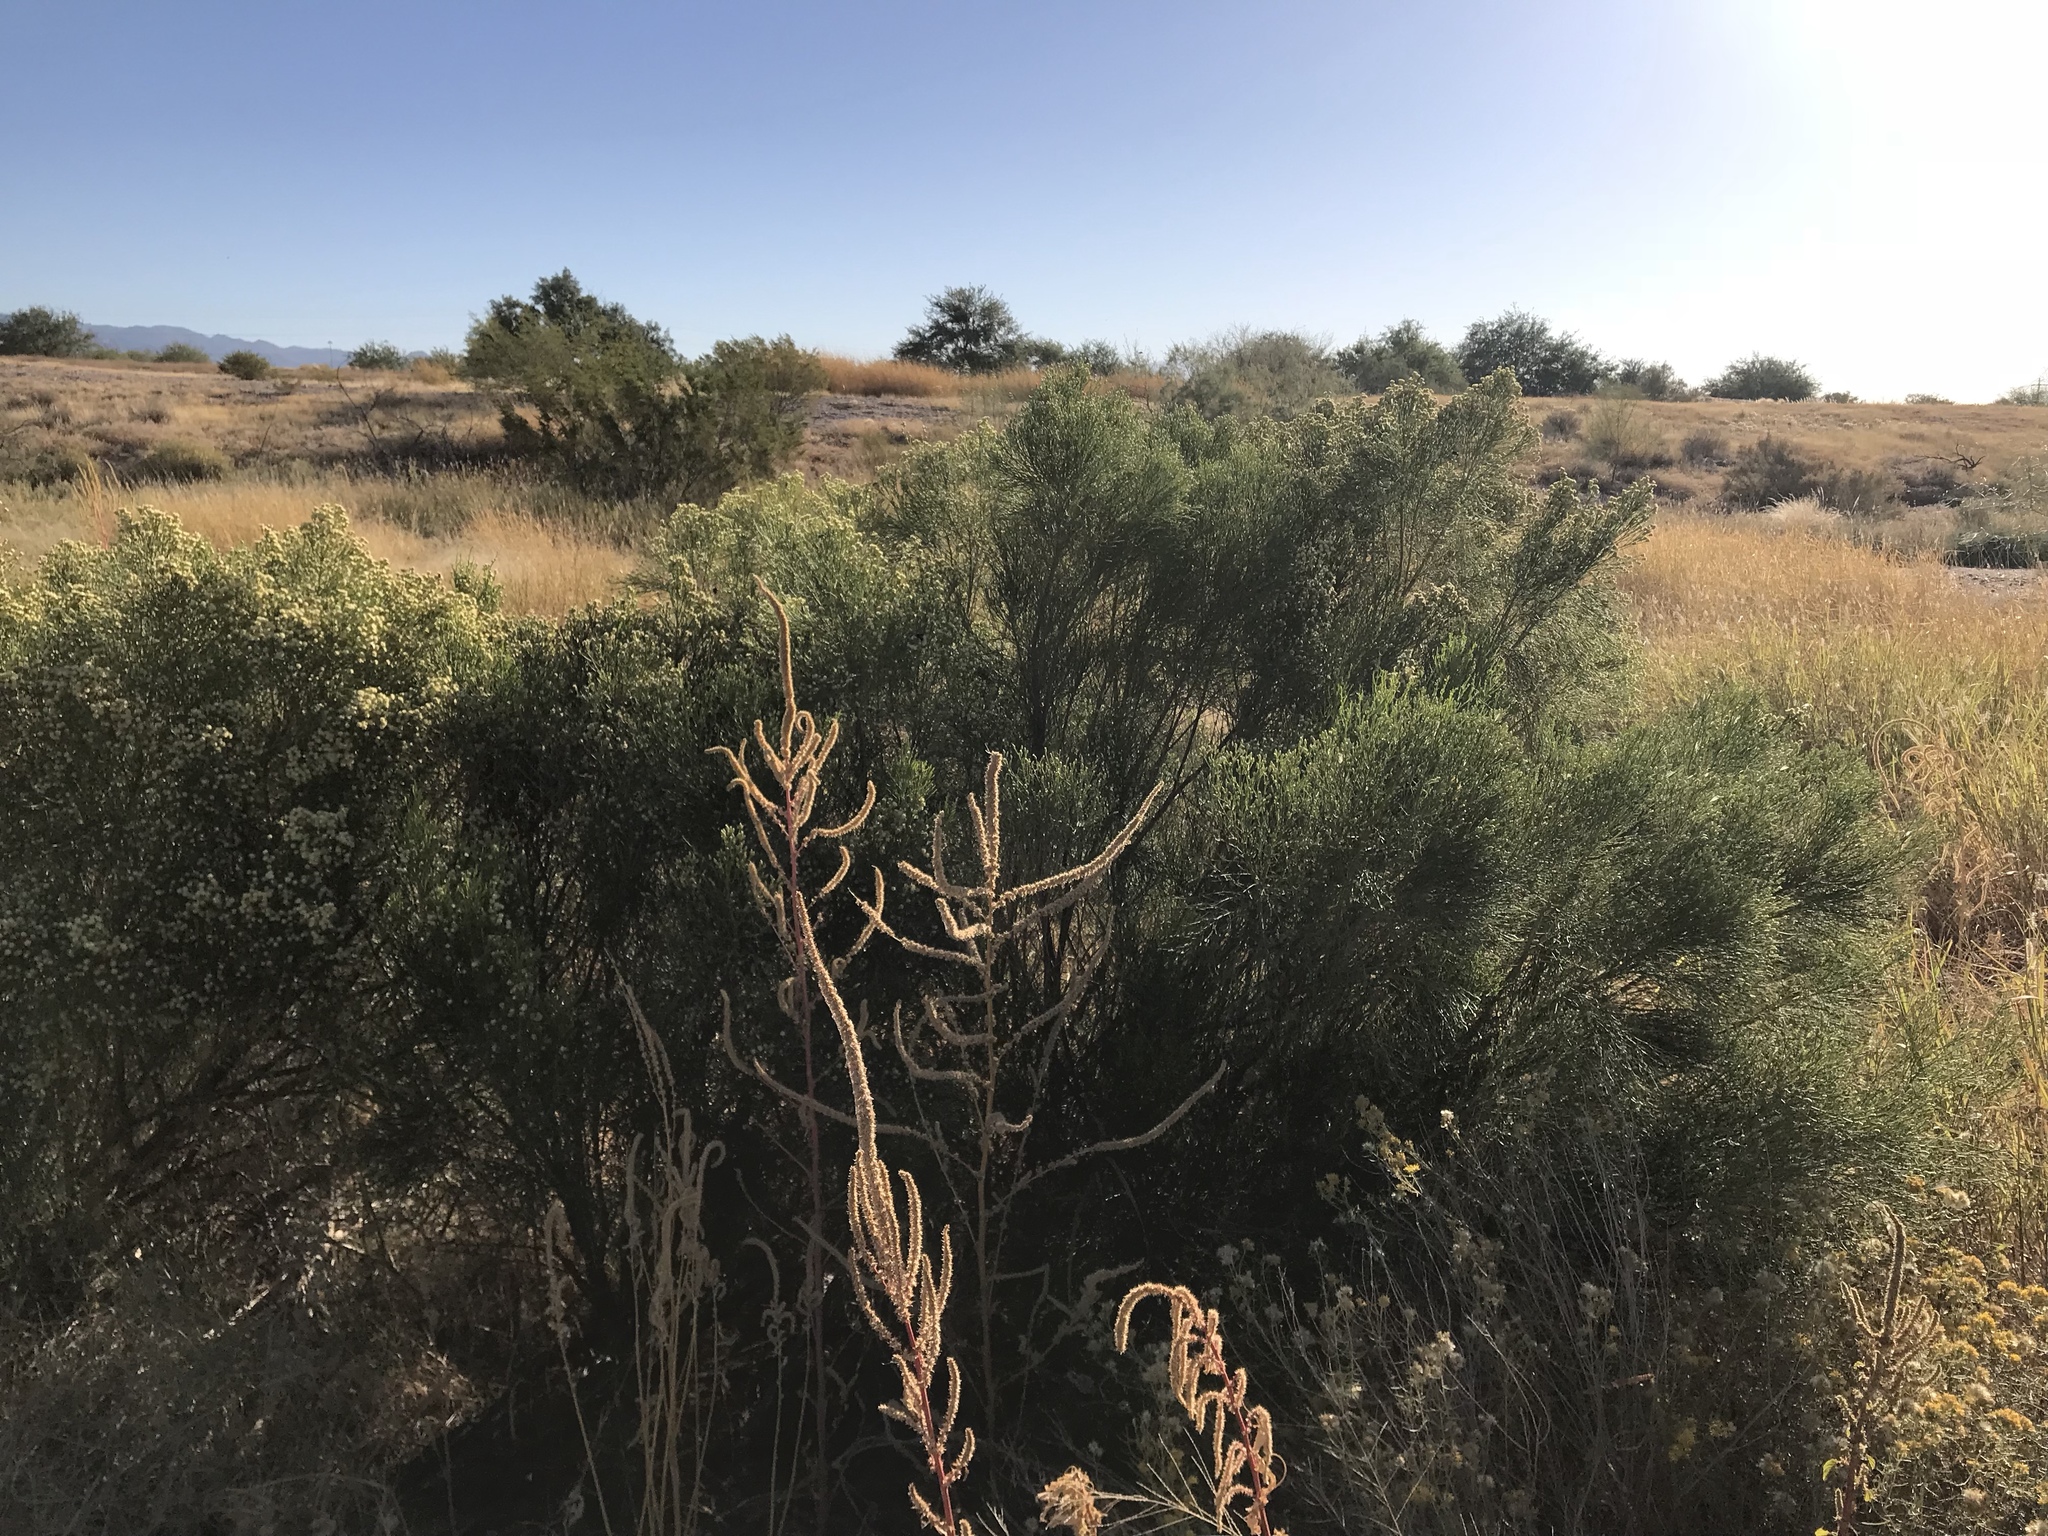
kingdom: Plantae
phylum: Tracheophyta
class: Magnoliopsida
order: Asterales
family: Asteraceae
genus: Baccharis
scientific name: Baccharis sarothroides
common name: Desert-broom
